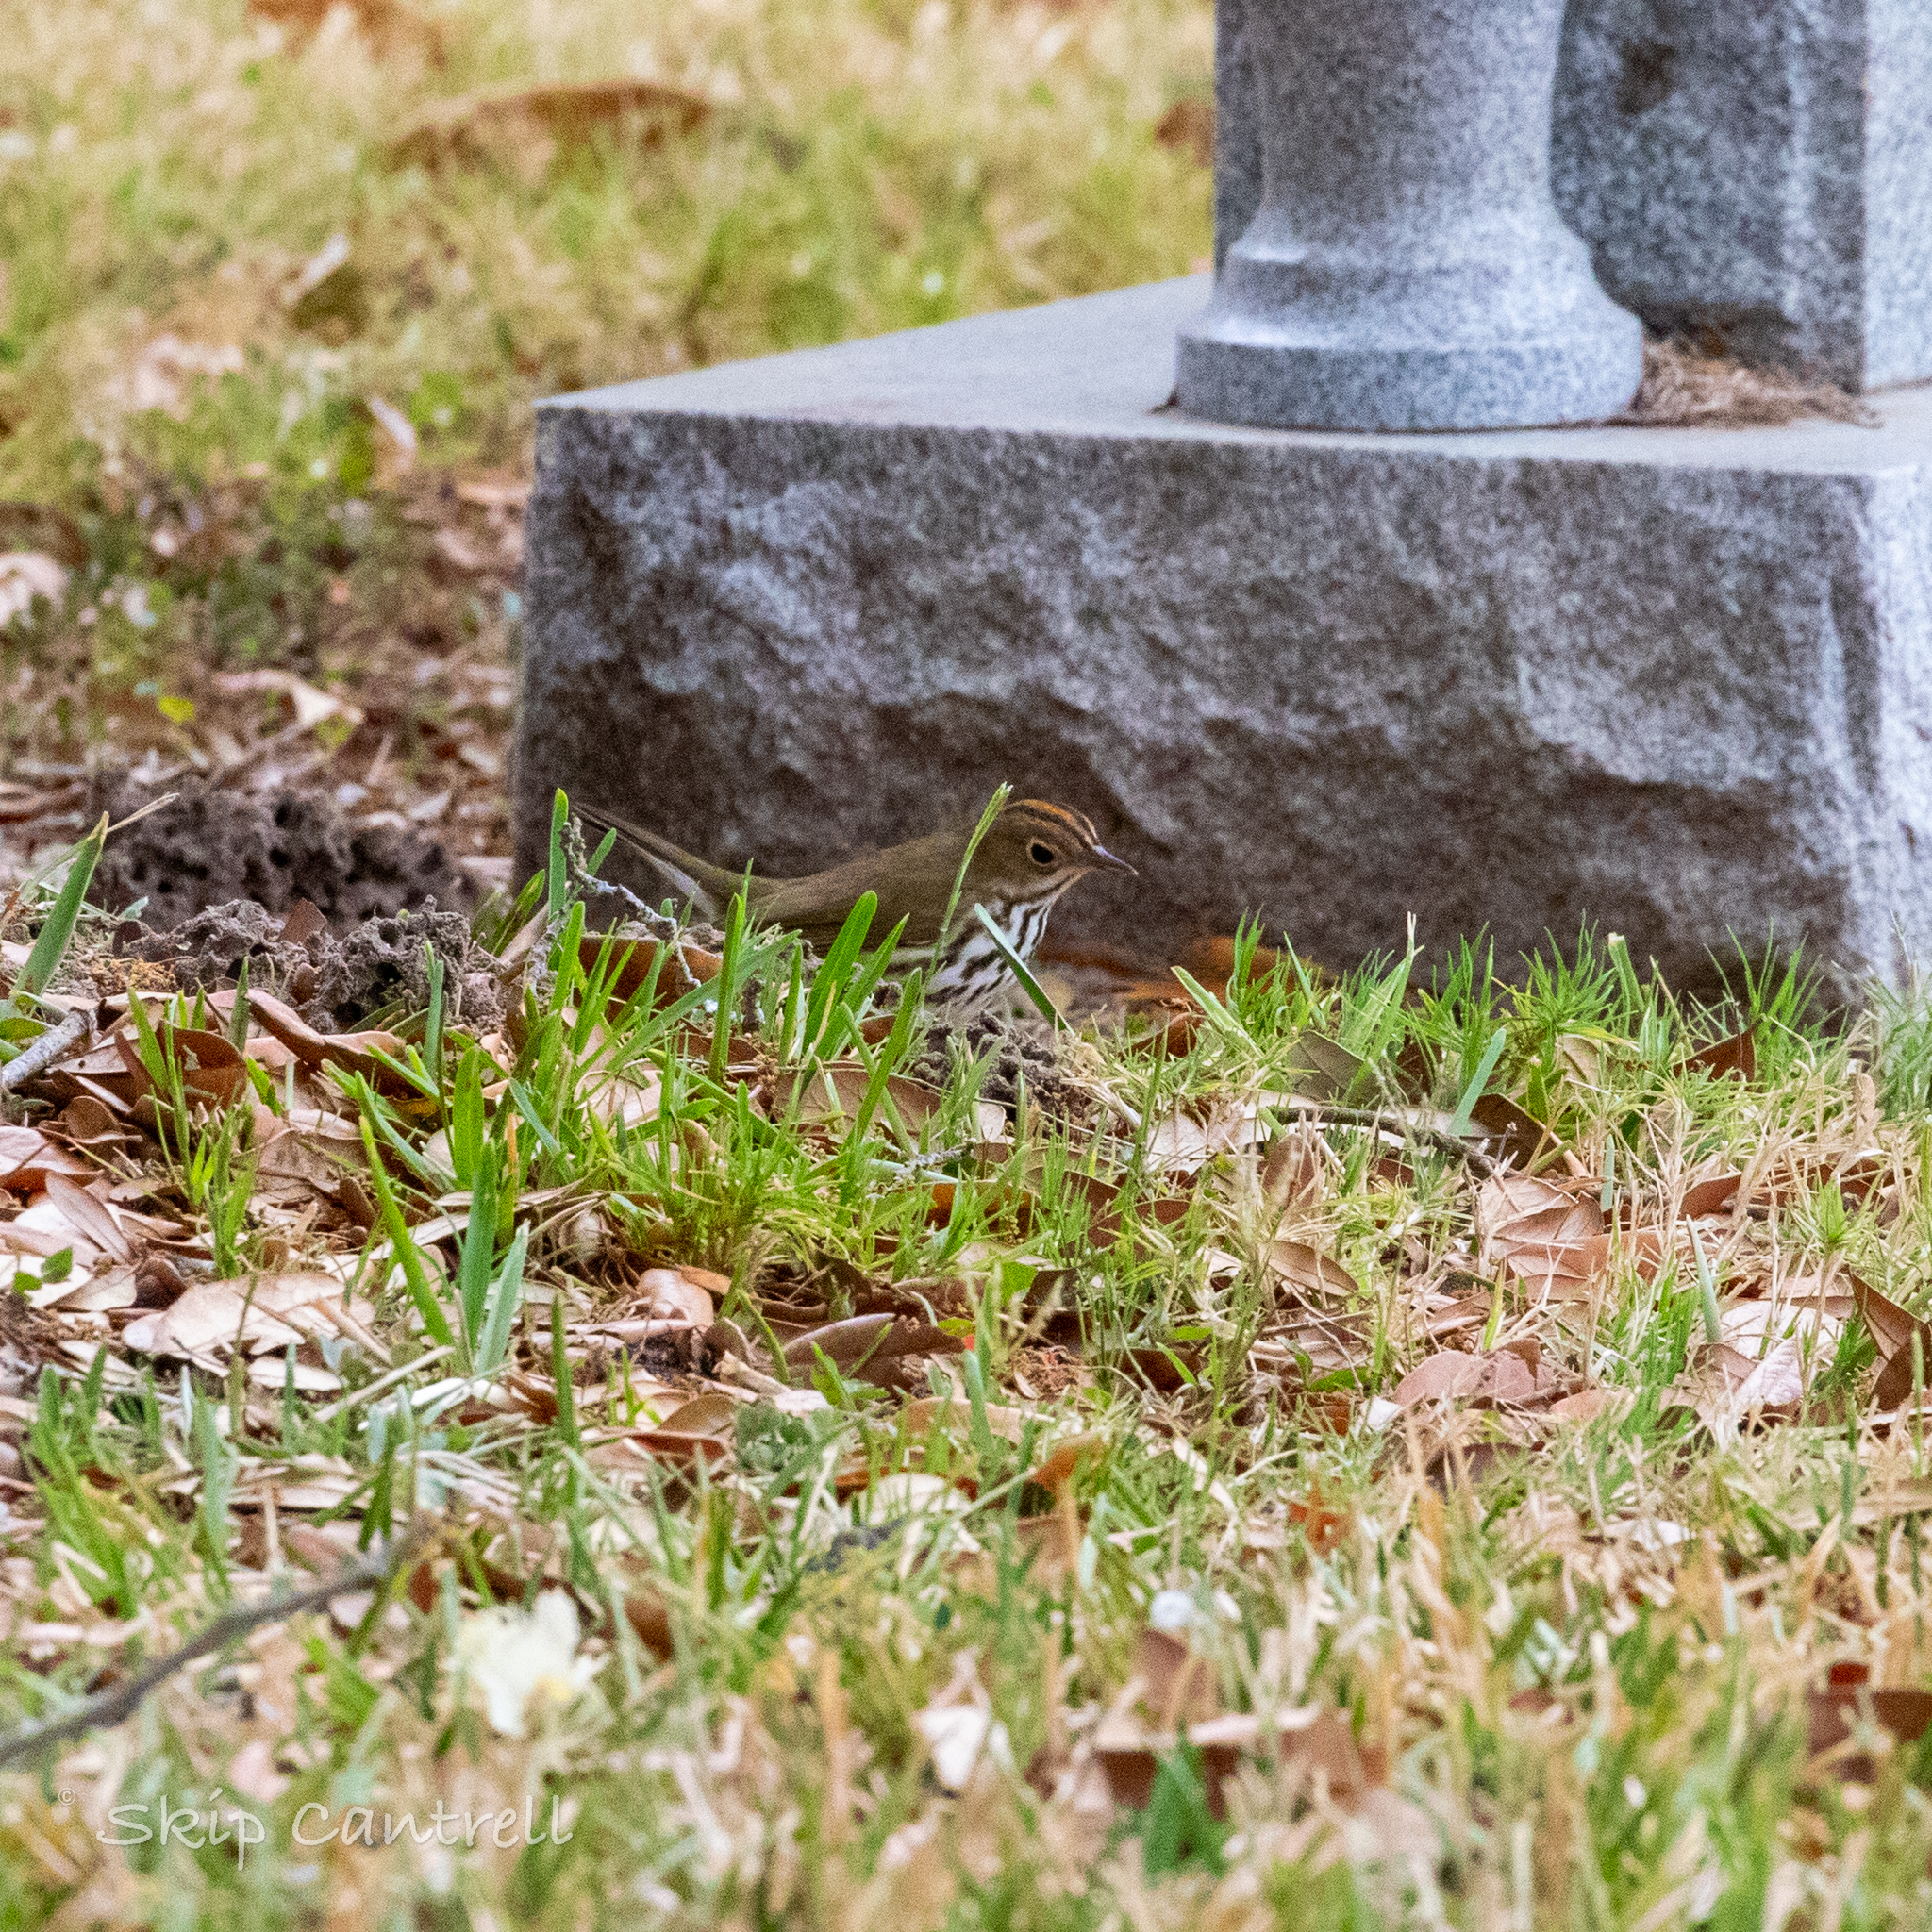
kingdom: Animalia
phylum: Chordata
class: Aves
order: Passeriformes
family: Parulidae
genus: Seiurus
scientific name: Seiurus aurocapilla
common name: Ovenbird
